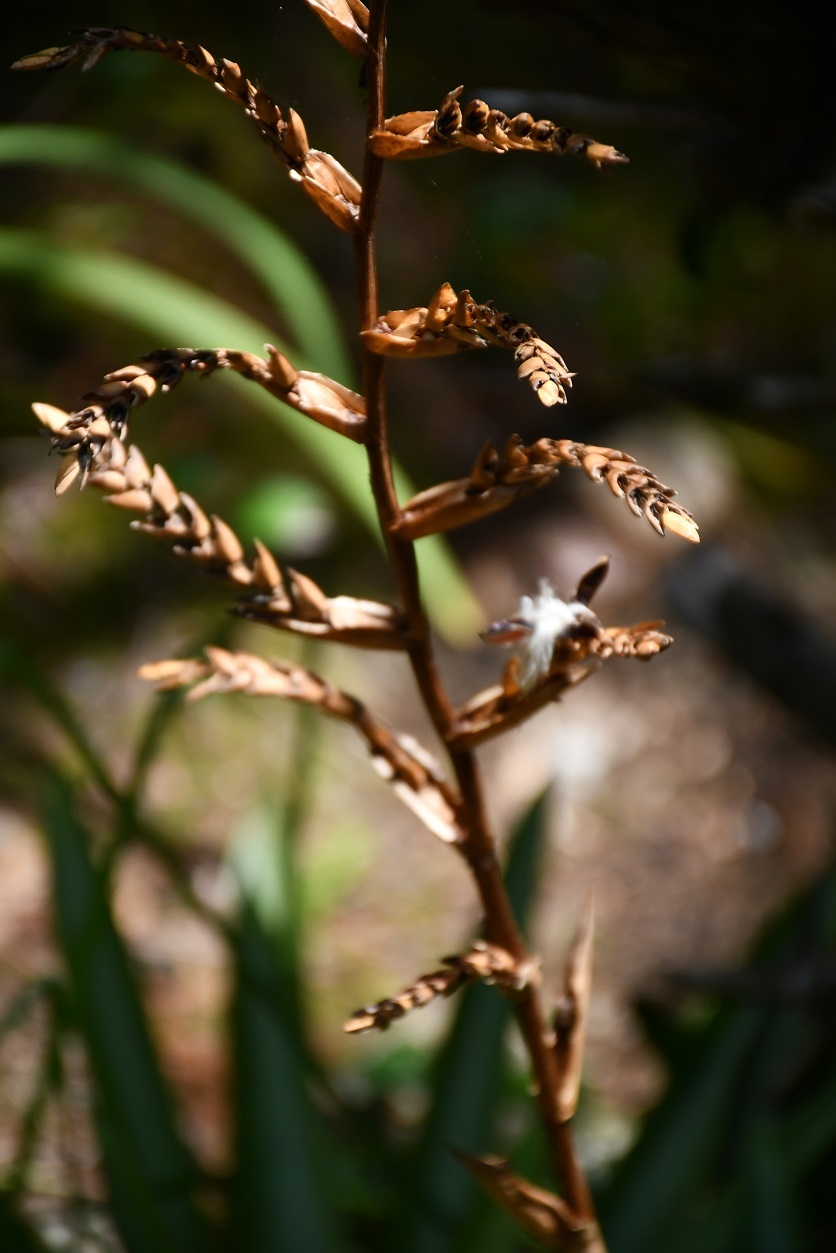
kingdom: Plantae
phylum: Tracheophyta
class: Liliopsida
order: Poales
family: Bromeliaceae
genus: Racinaea
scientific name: Racinaea rothschuhiana
